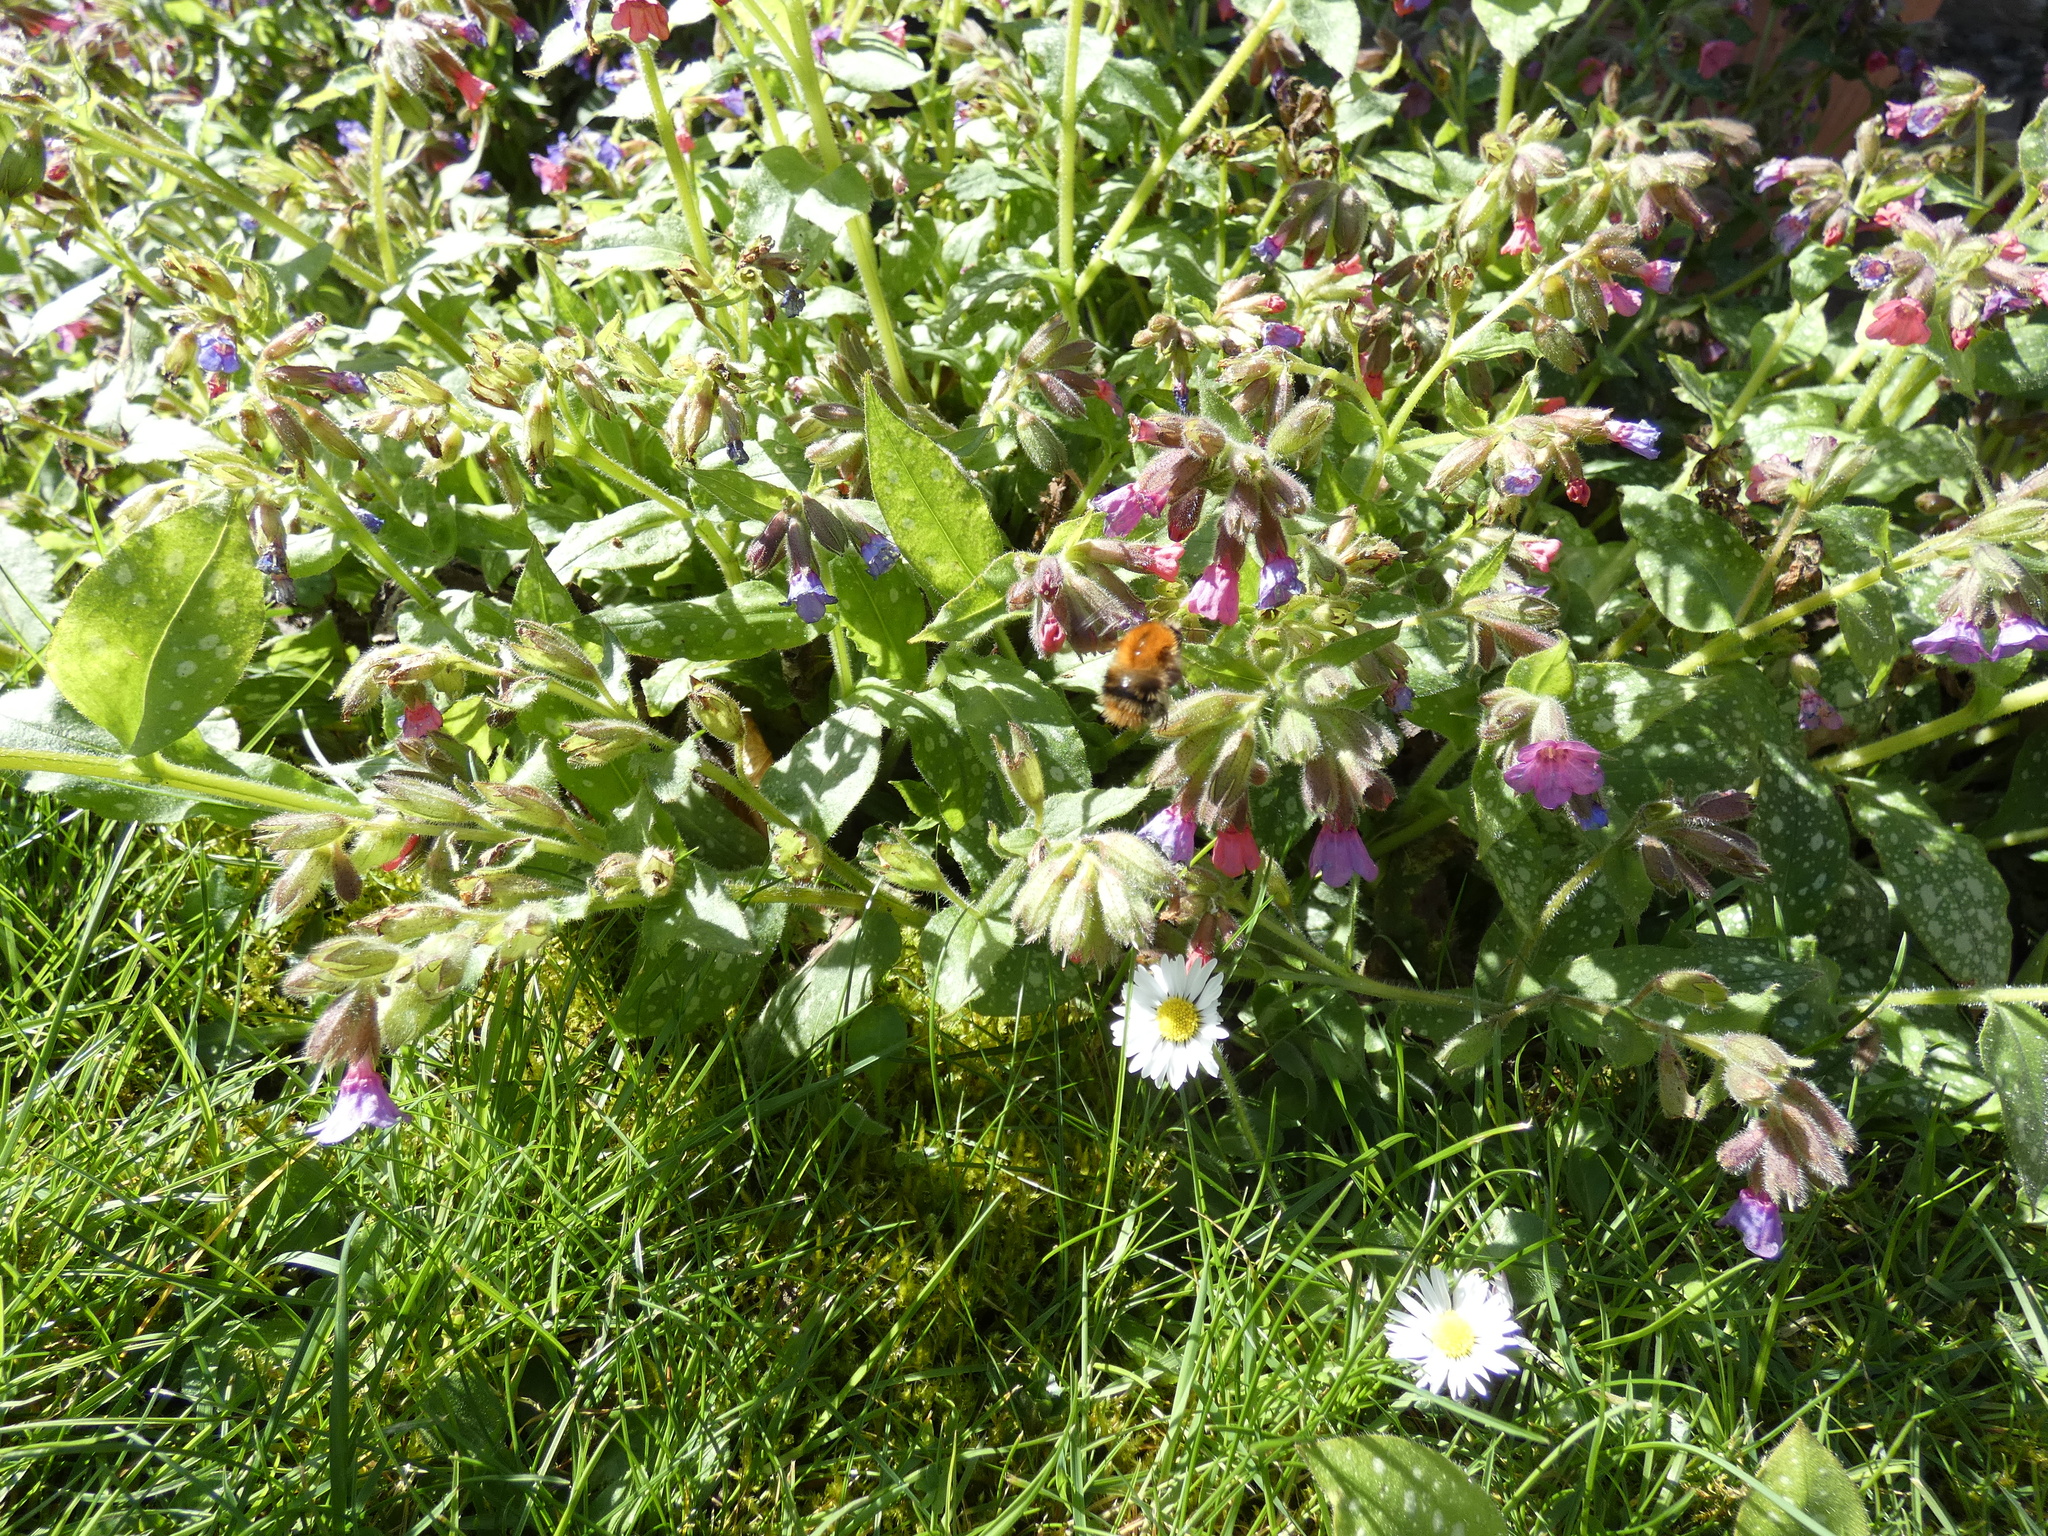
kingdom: Animalia
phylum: Arthropoda
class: Insecta
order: Hymenoptera
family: Apidae
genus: Bombus
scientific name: Bombus pascuorum
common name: Common carder bee
